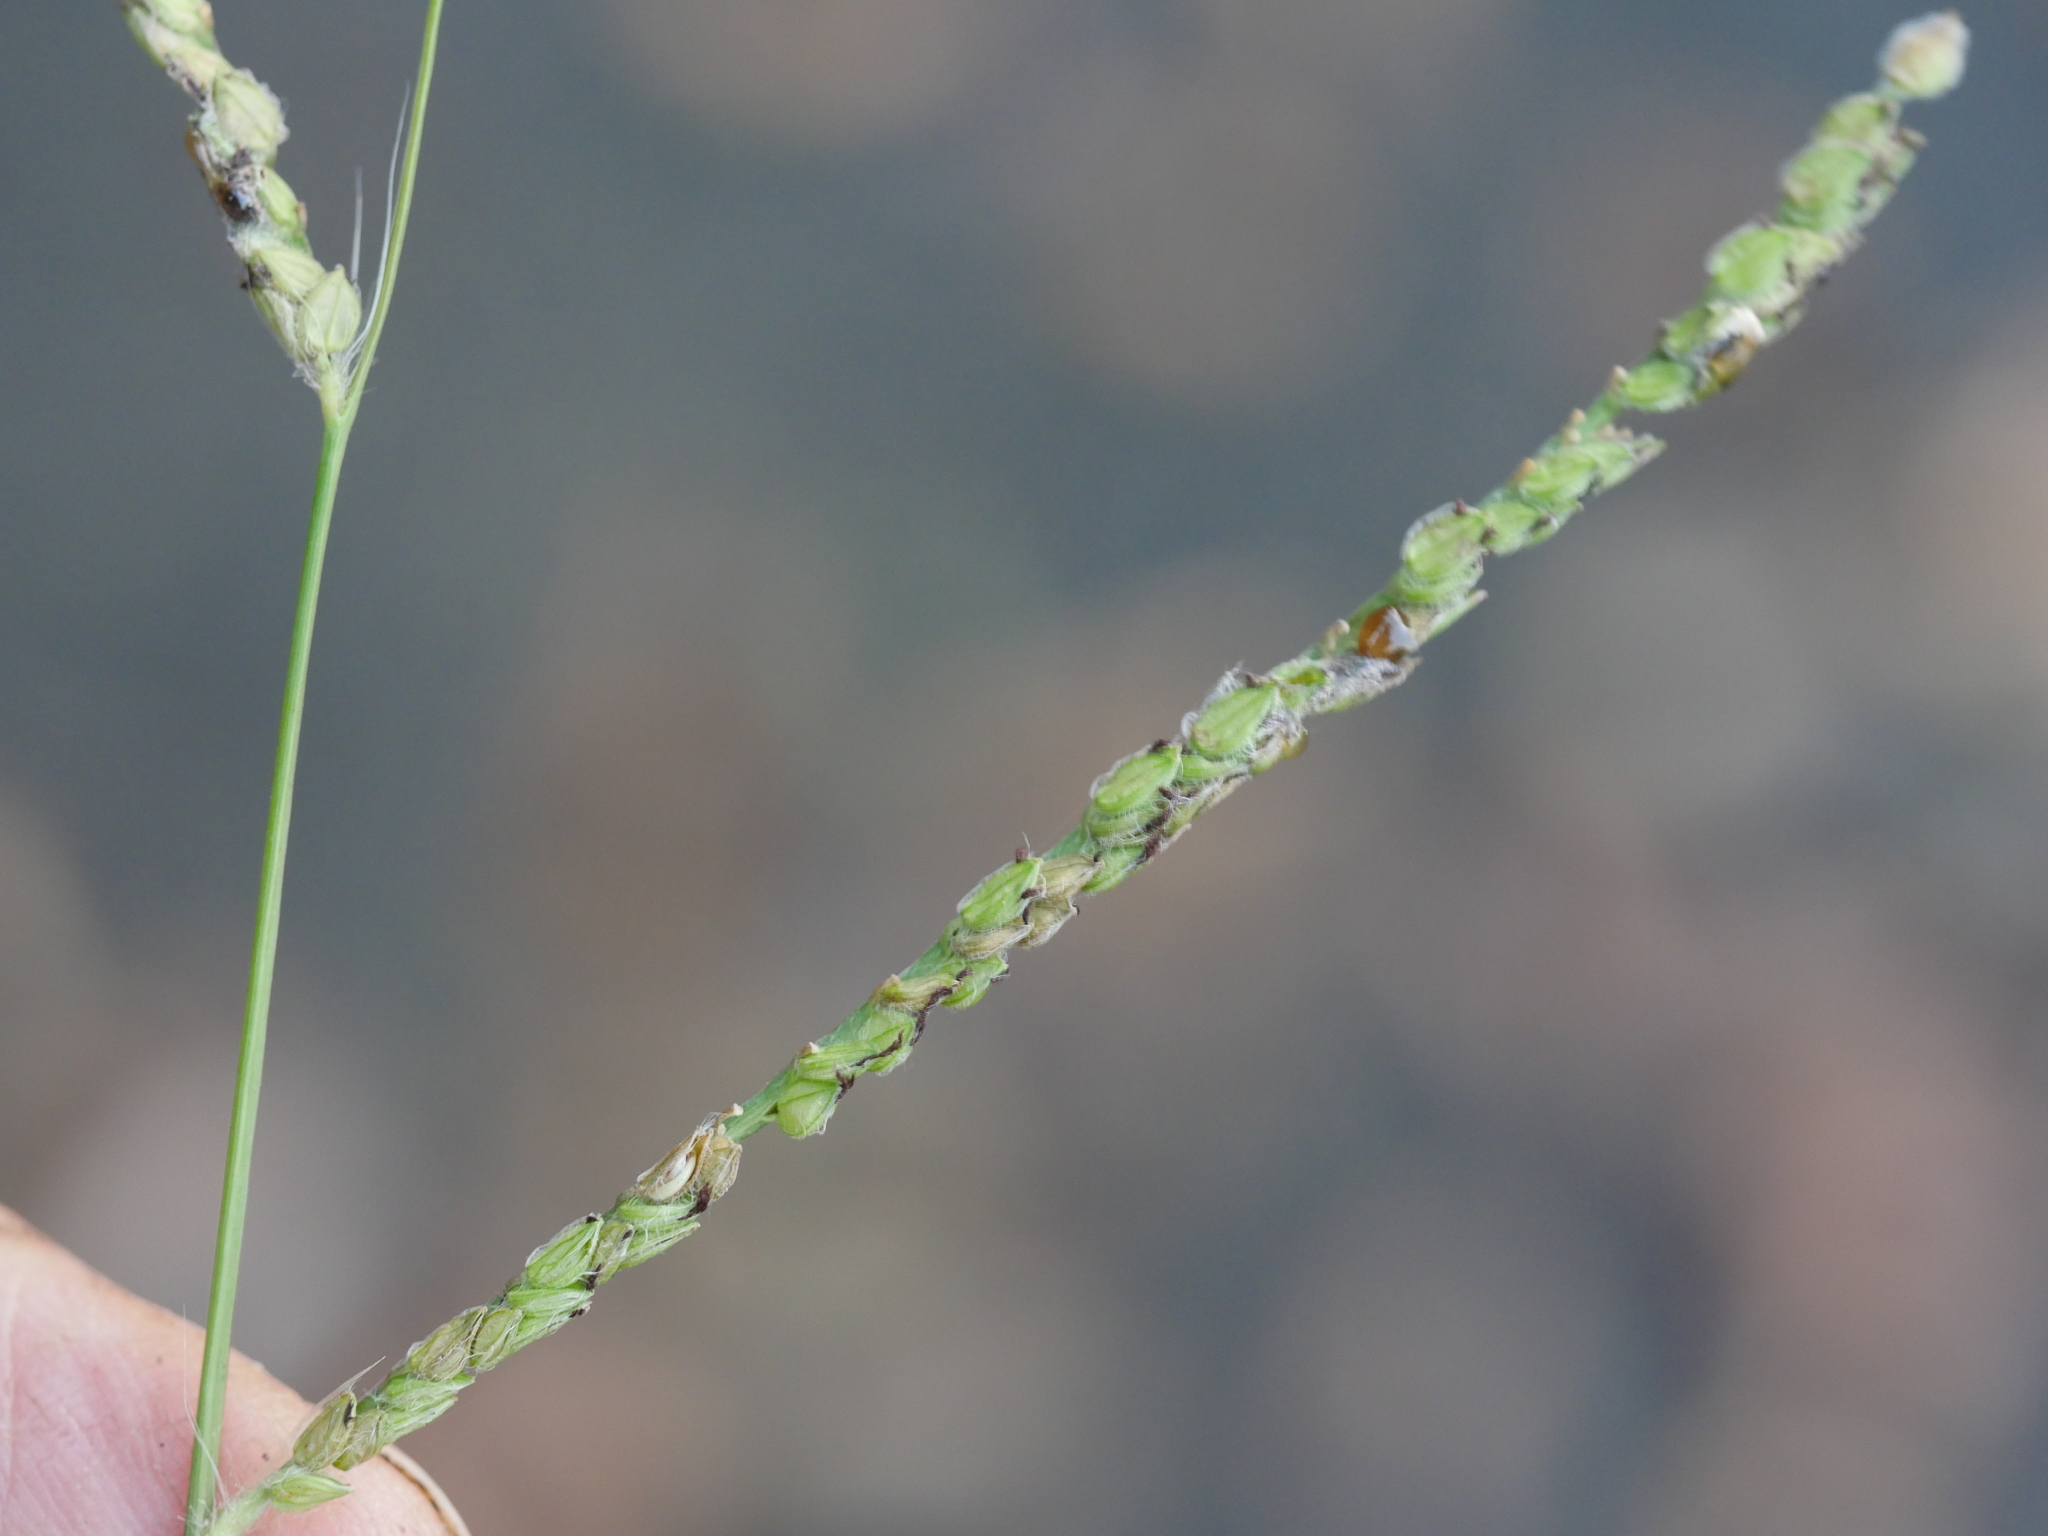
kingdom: Plantae
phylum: Tracheophyta
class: Liliopsida
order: Poales
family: Poaceae
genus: Paspalum
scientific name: Paspalum dilatatum
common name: Dallisgrass
